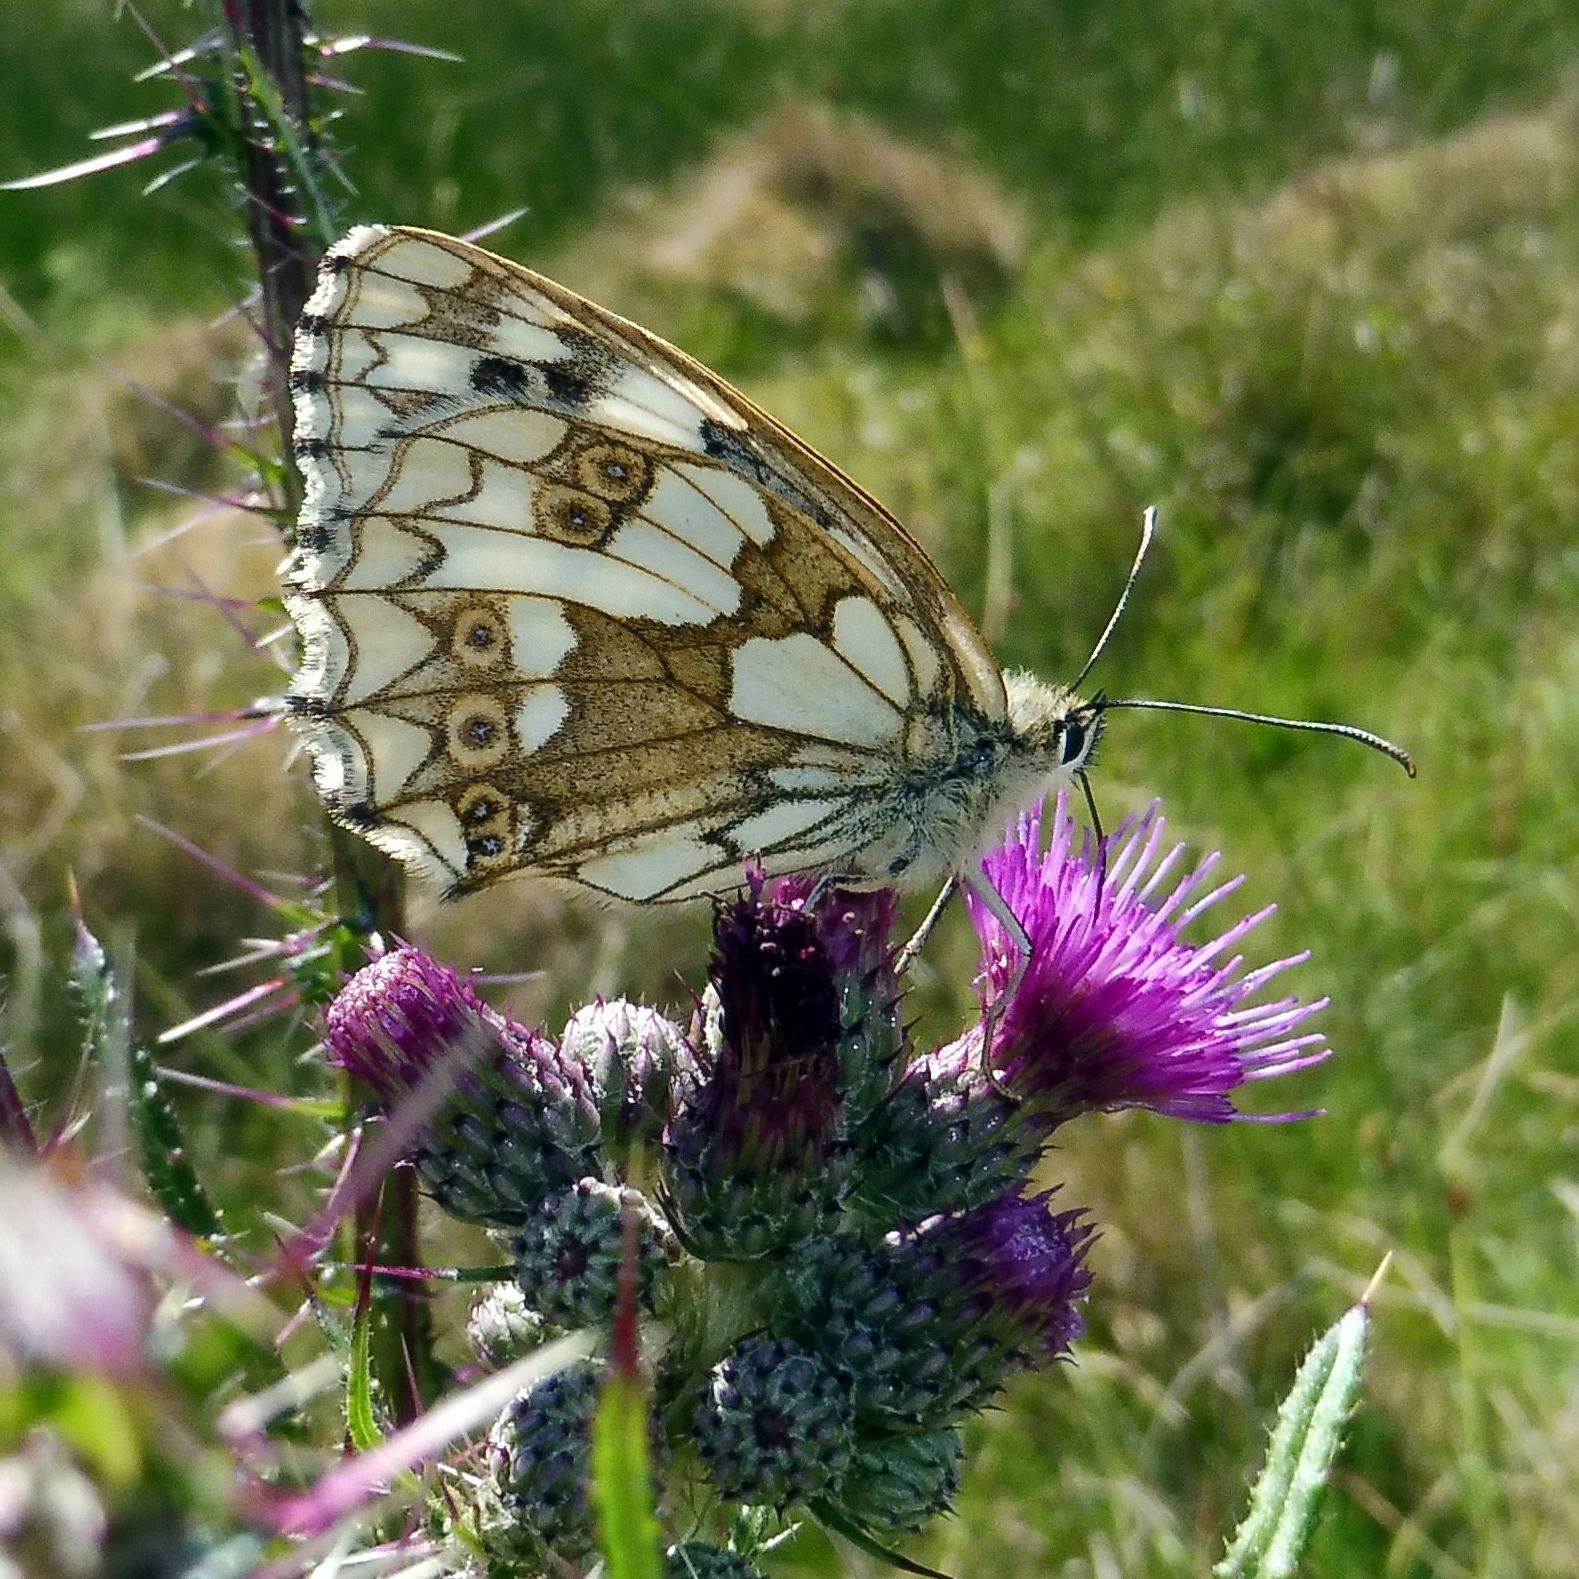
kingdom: Animalia
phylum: Arthropoda
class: Insecta
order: Lepidoptera
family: Nymphalidae
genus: Melanargia
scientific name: Melanargia galathea
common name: Marbled white
